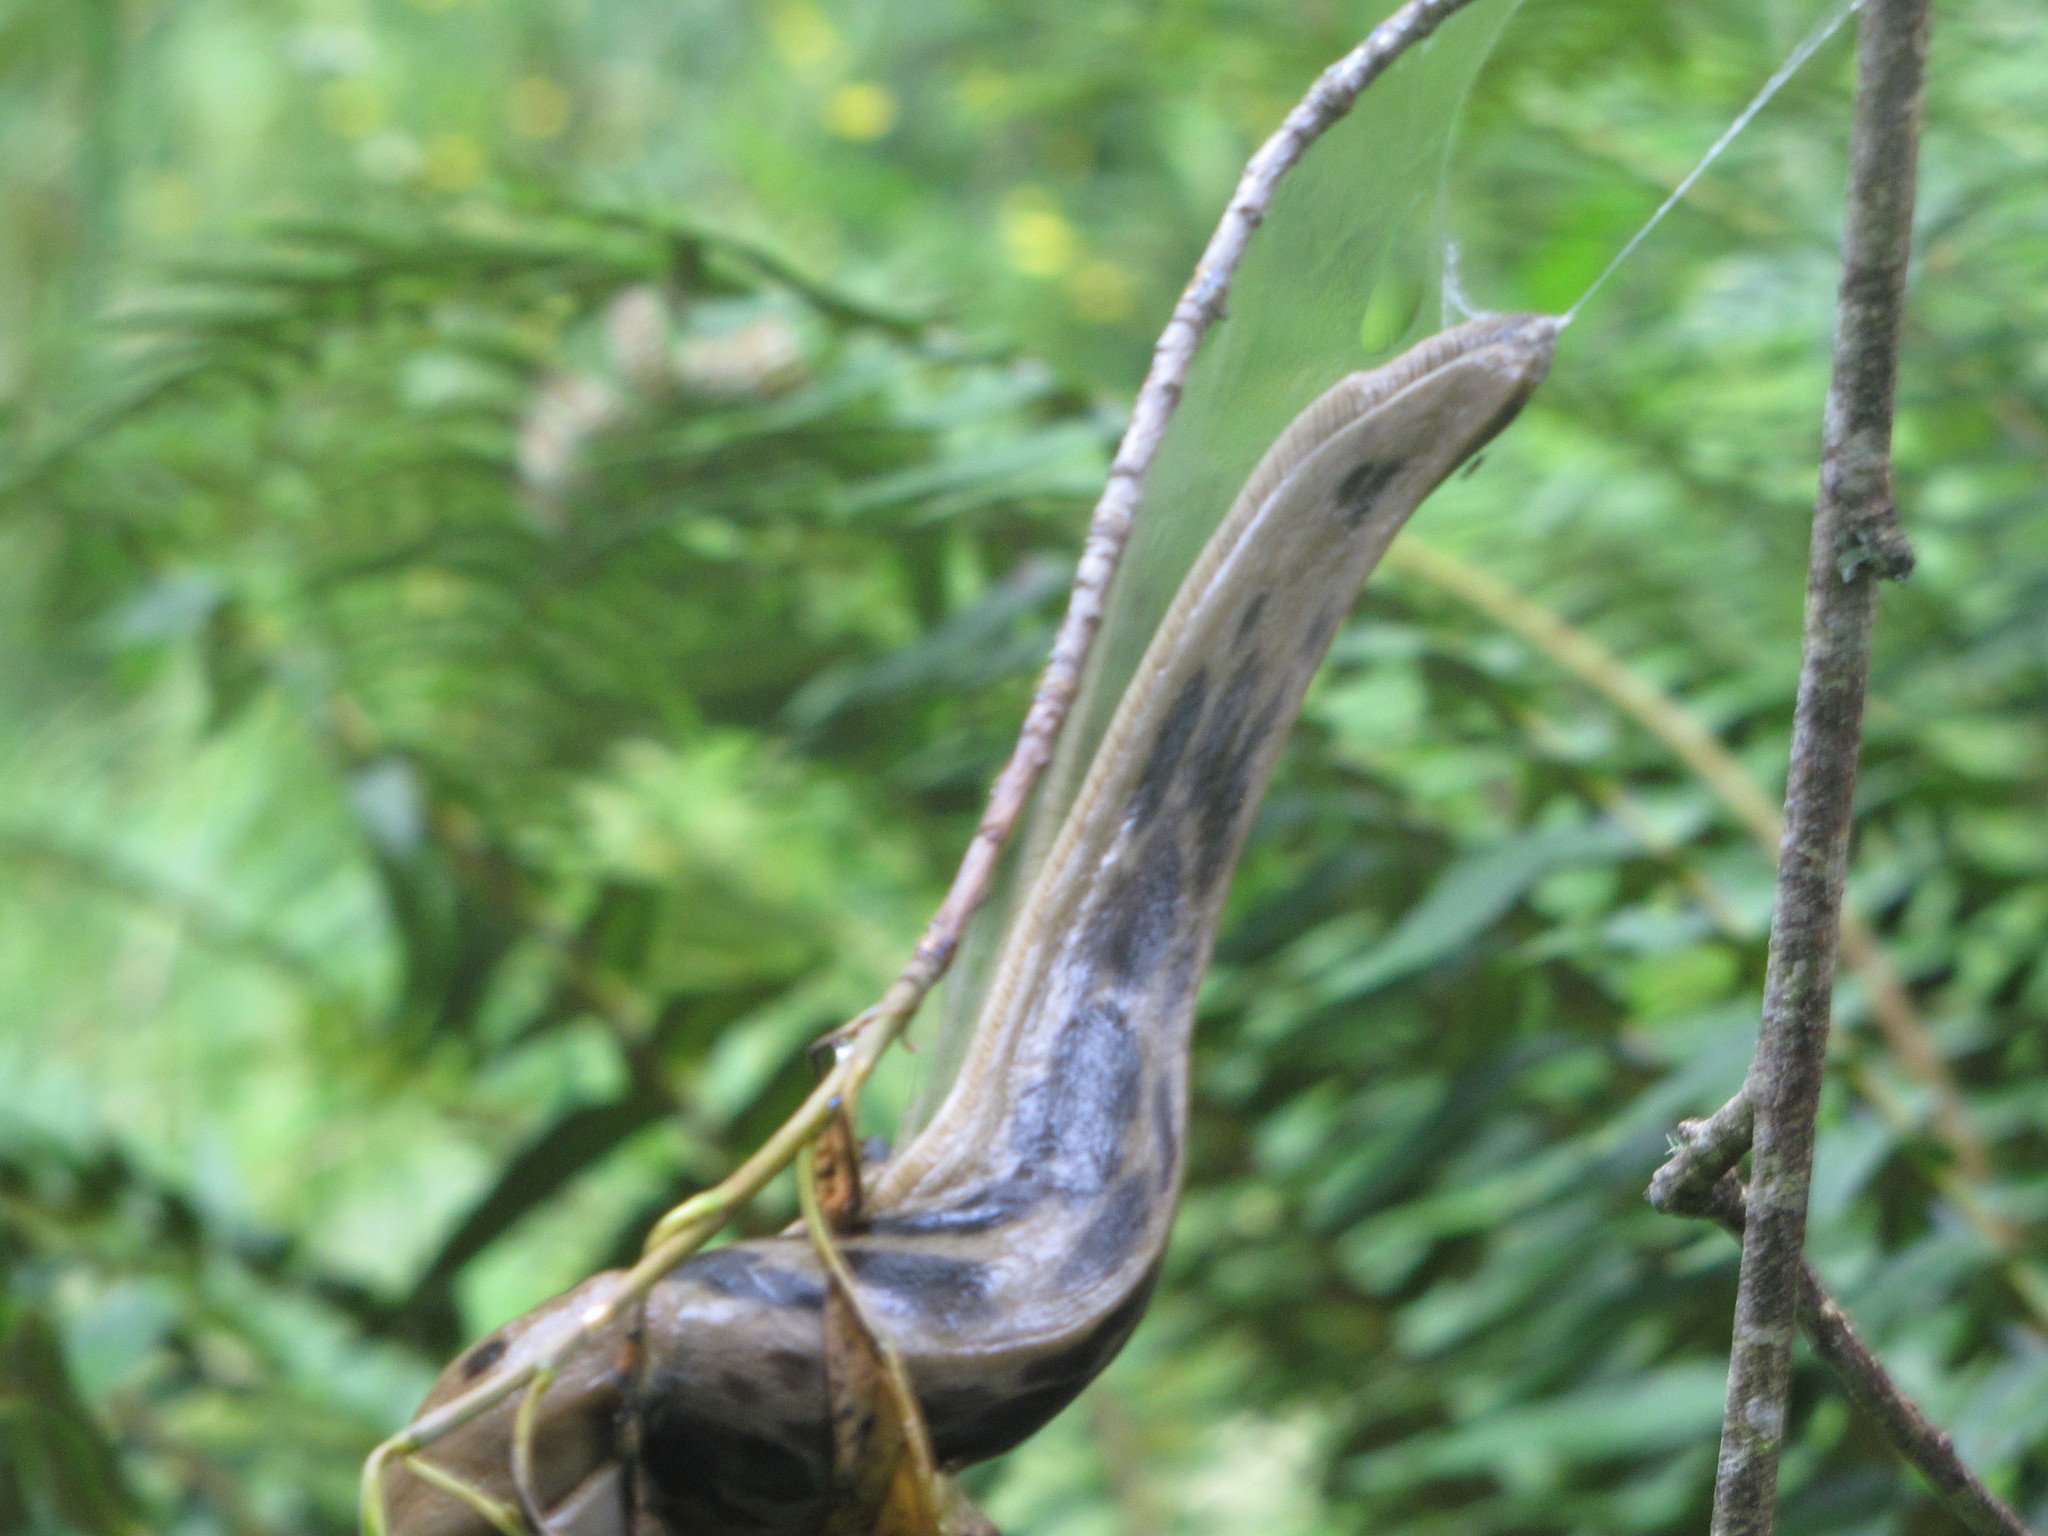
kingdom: Animalia
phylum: Mollusca
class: Gastropoda
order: Stylommatophora
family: Ariolimacidae
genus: Ariolimax
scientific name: Ariolimax columbianus
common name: Pacific banana slug
